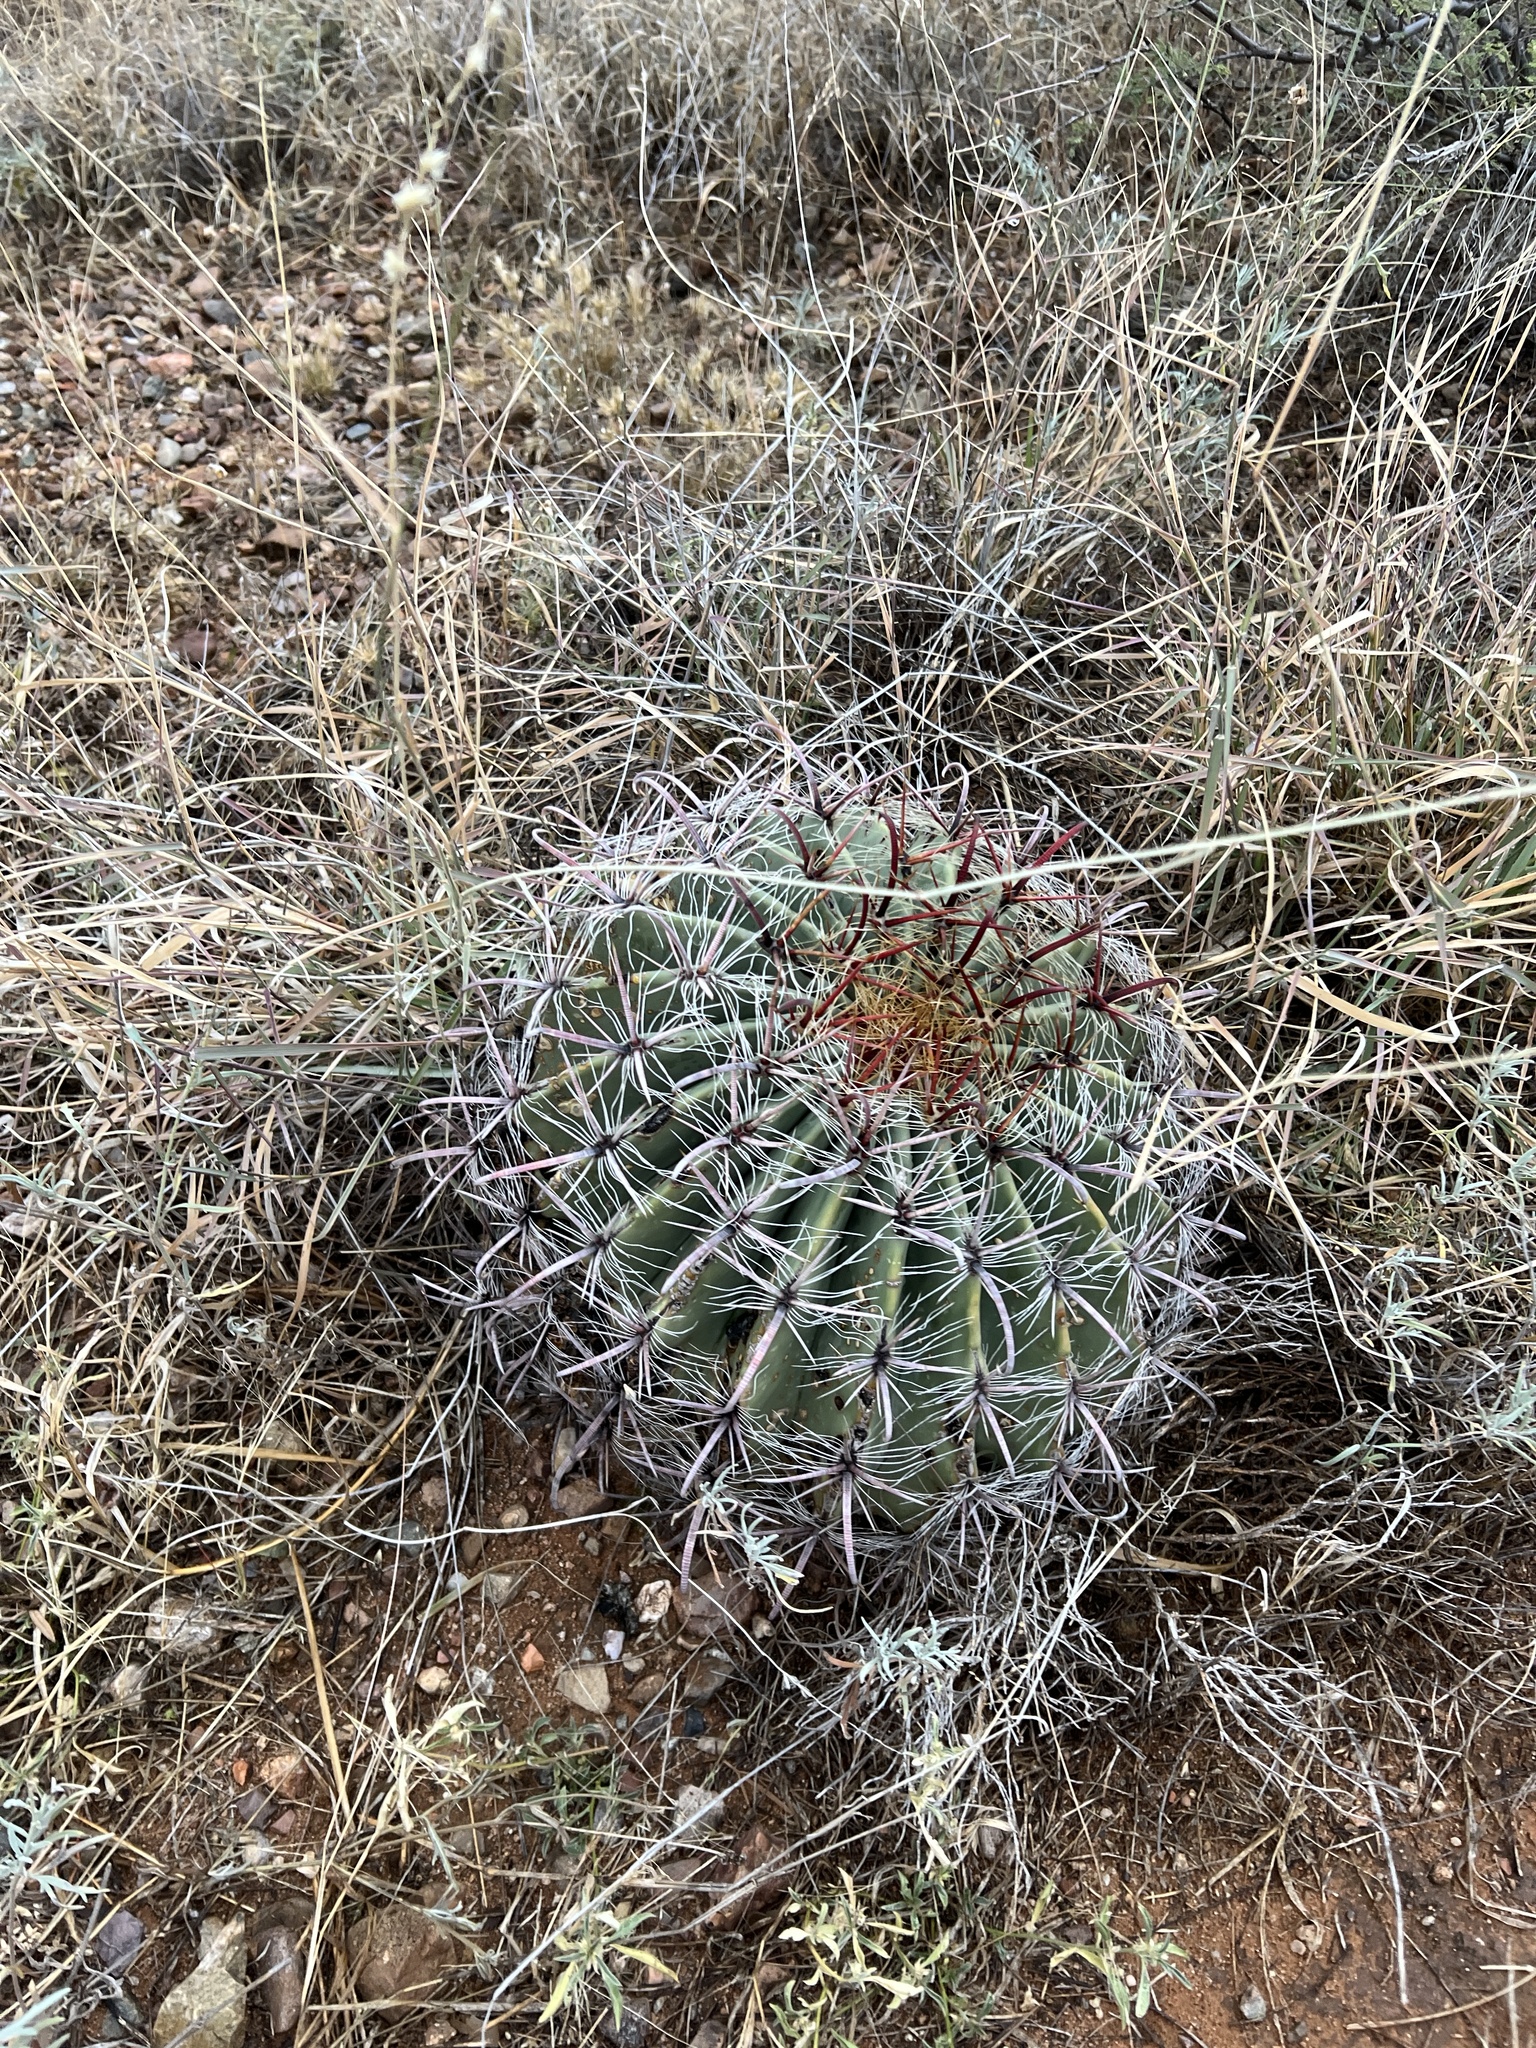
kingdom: Plantae
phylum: Tracheophyta
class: Magnoliopsida
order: Caryophyllales
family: Cactaceae
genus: Ferocactus
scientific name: Ferocactus wislizeni
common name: Candy barrel cactus
